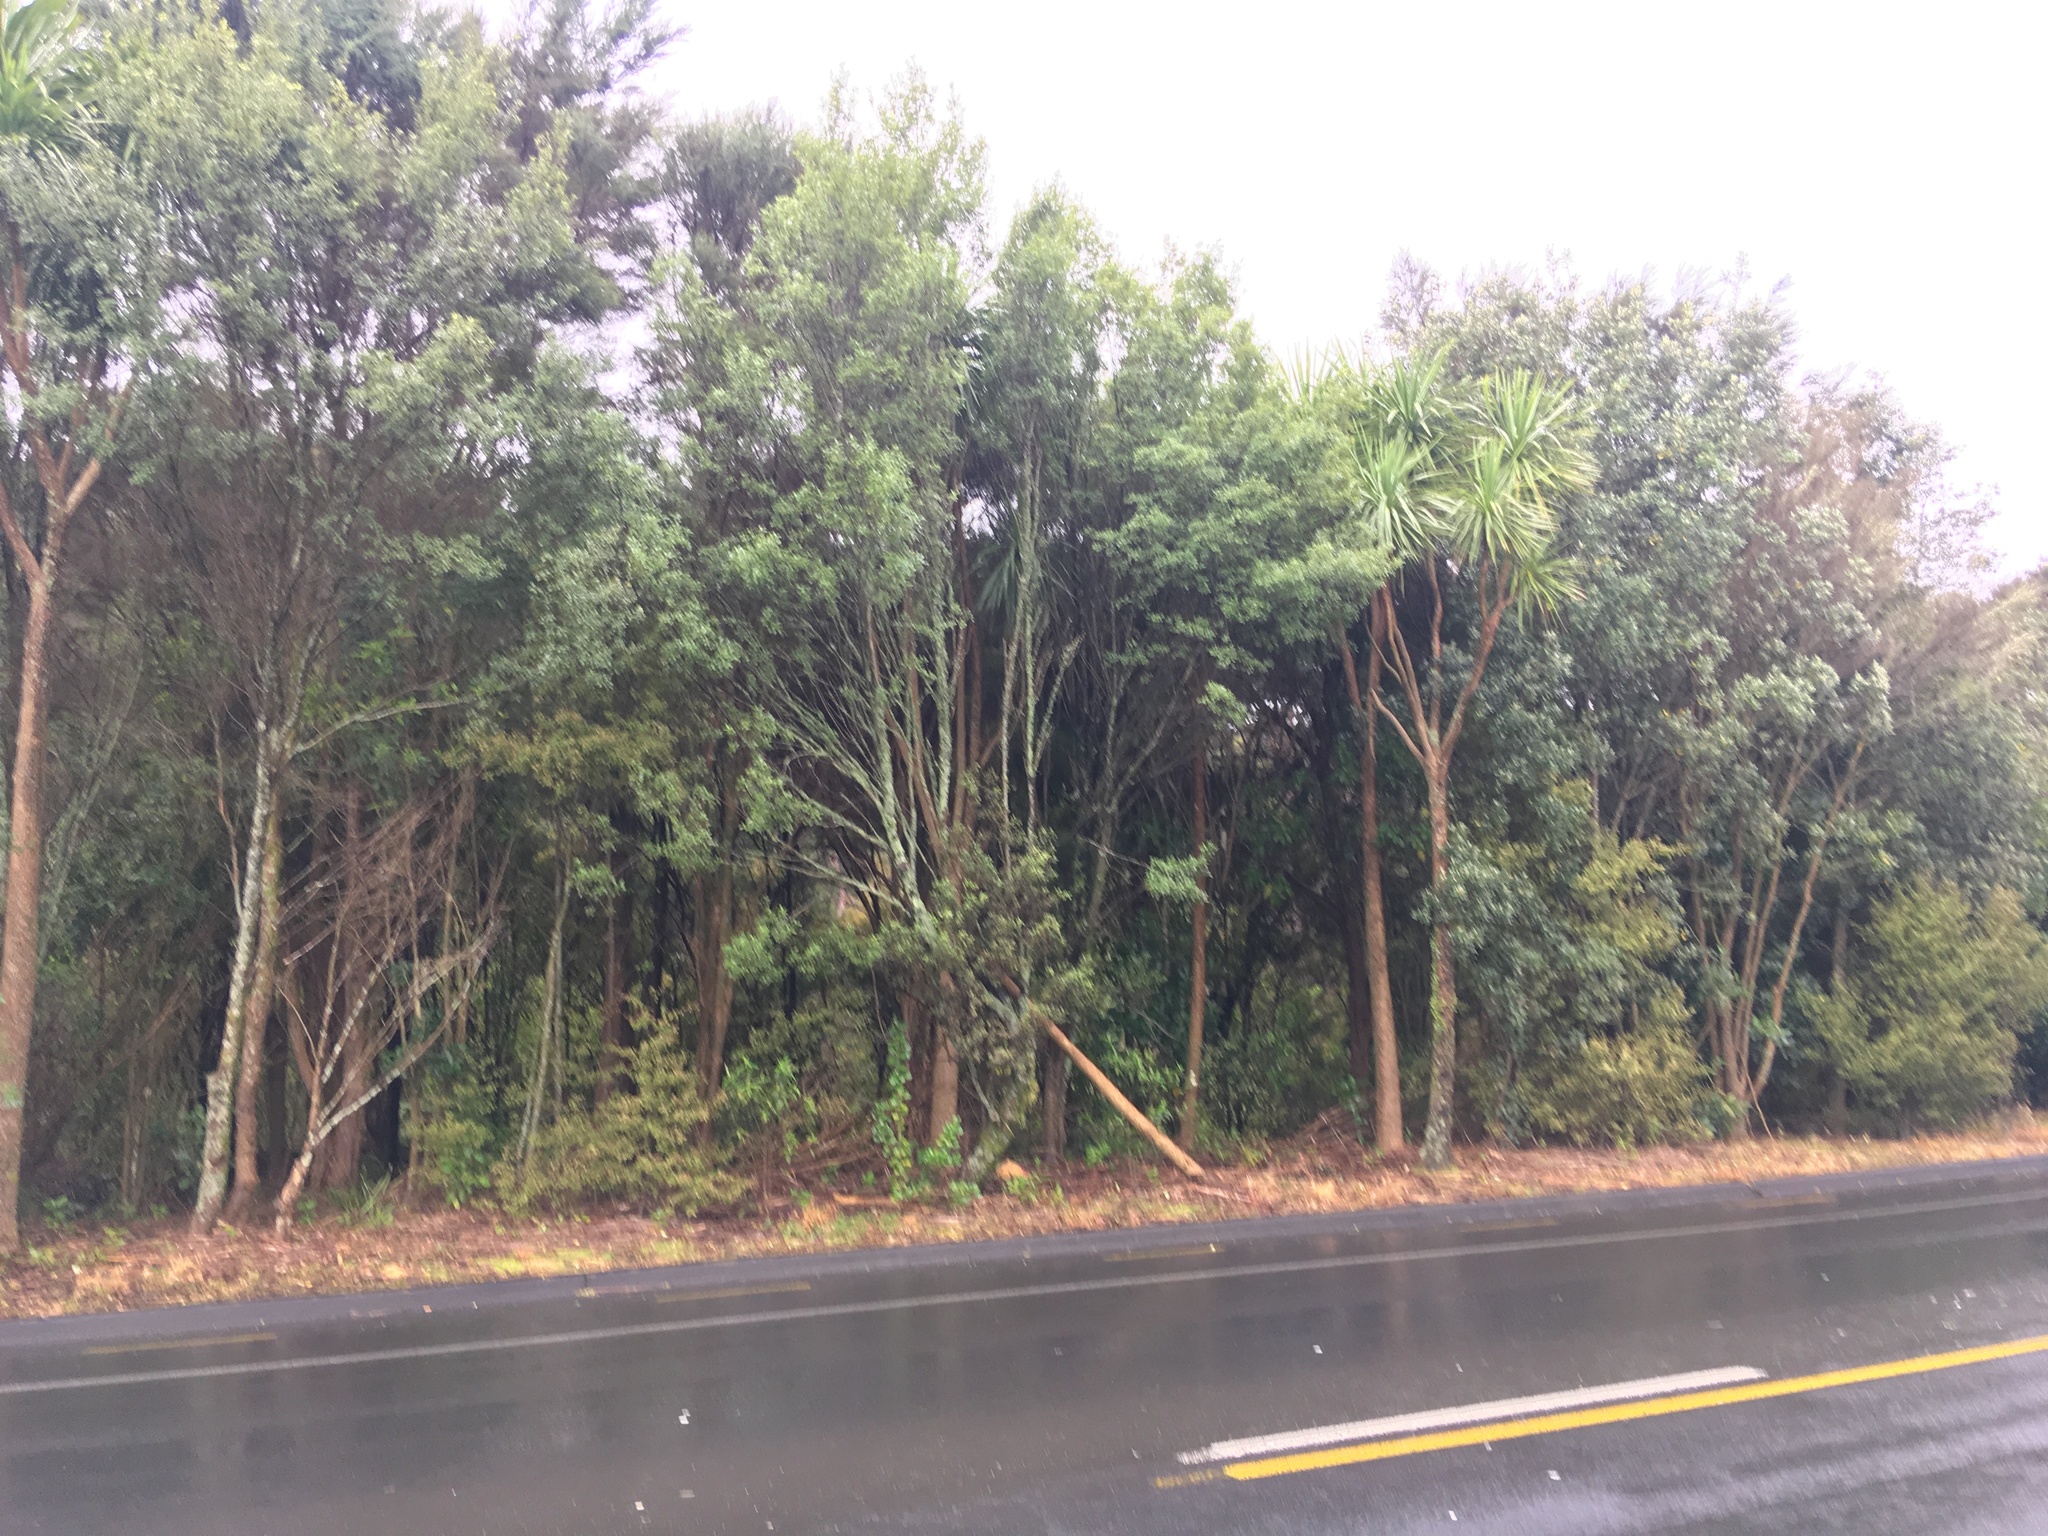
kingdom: Plantae
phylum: Tracheophyta
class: Liliopsida
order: Asparagales
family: Asparagaceae
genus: Cordyline
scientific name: Cordyline australis
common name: Cabbage-palm
